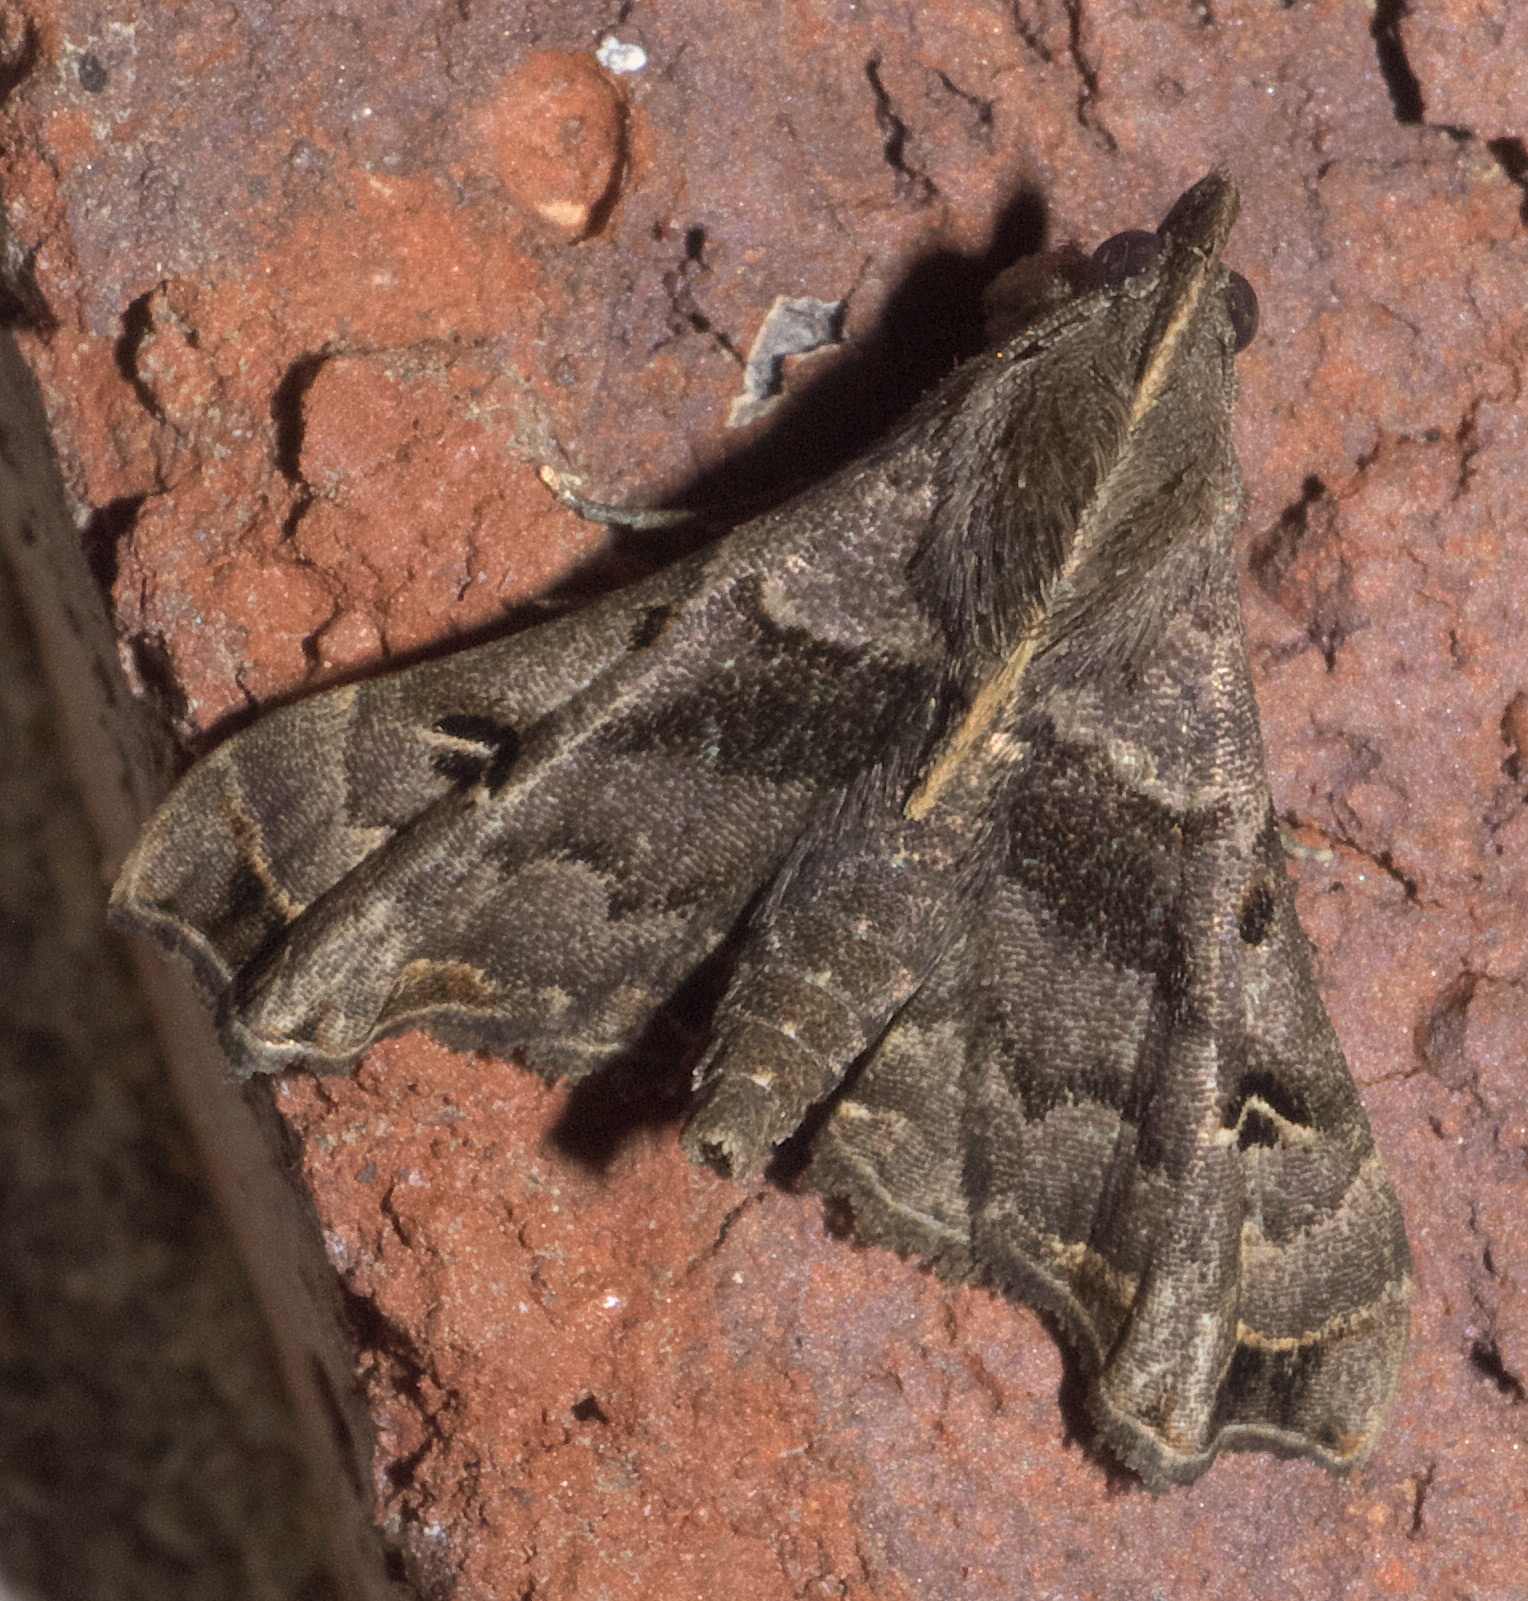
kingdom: Animalia
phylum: Arthropoda
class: Insecta
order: Lepidoptera
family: Erebidae
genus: Palthis
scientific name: Palthis asopialis
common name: Faint-spotted palthis moth
